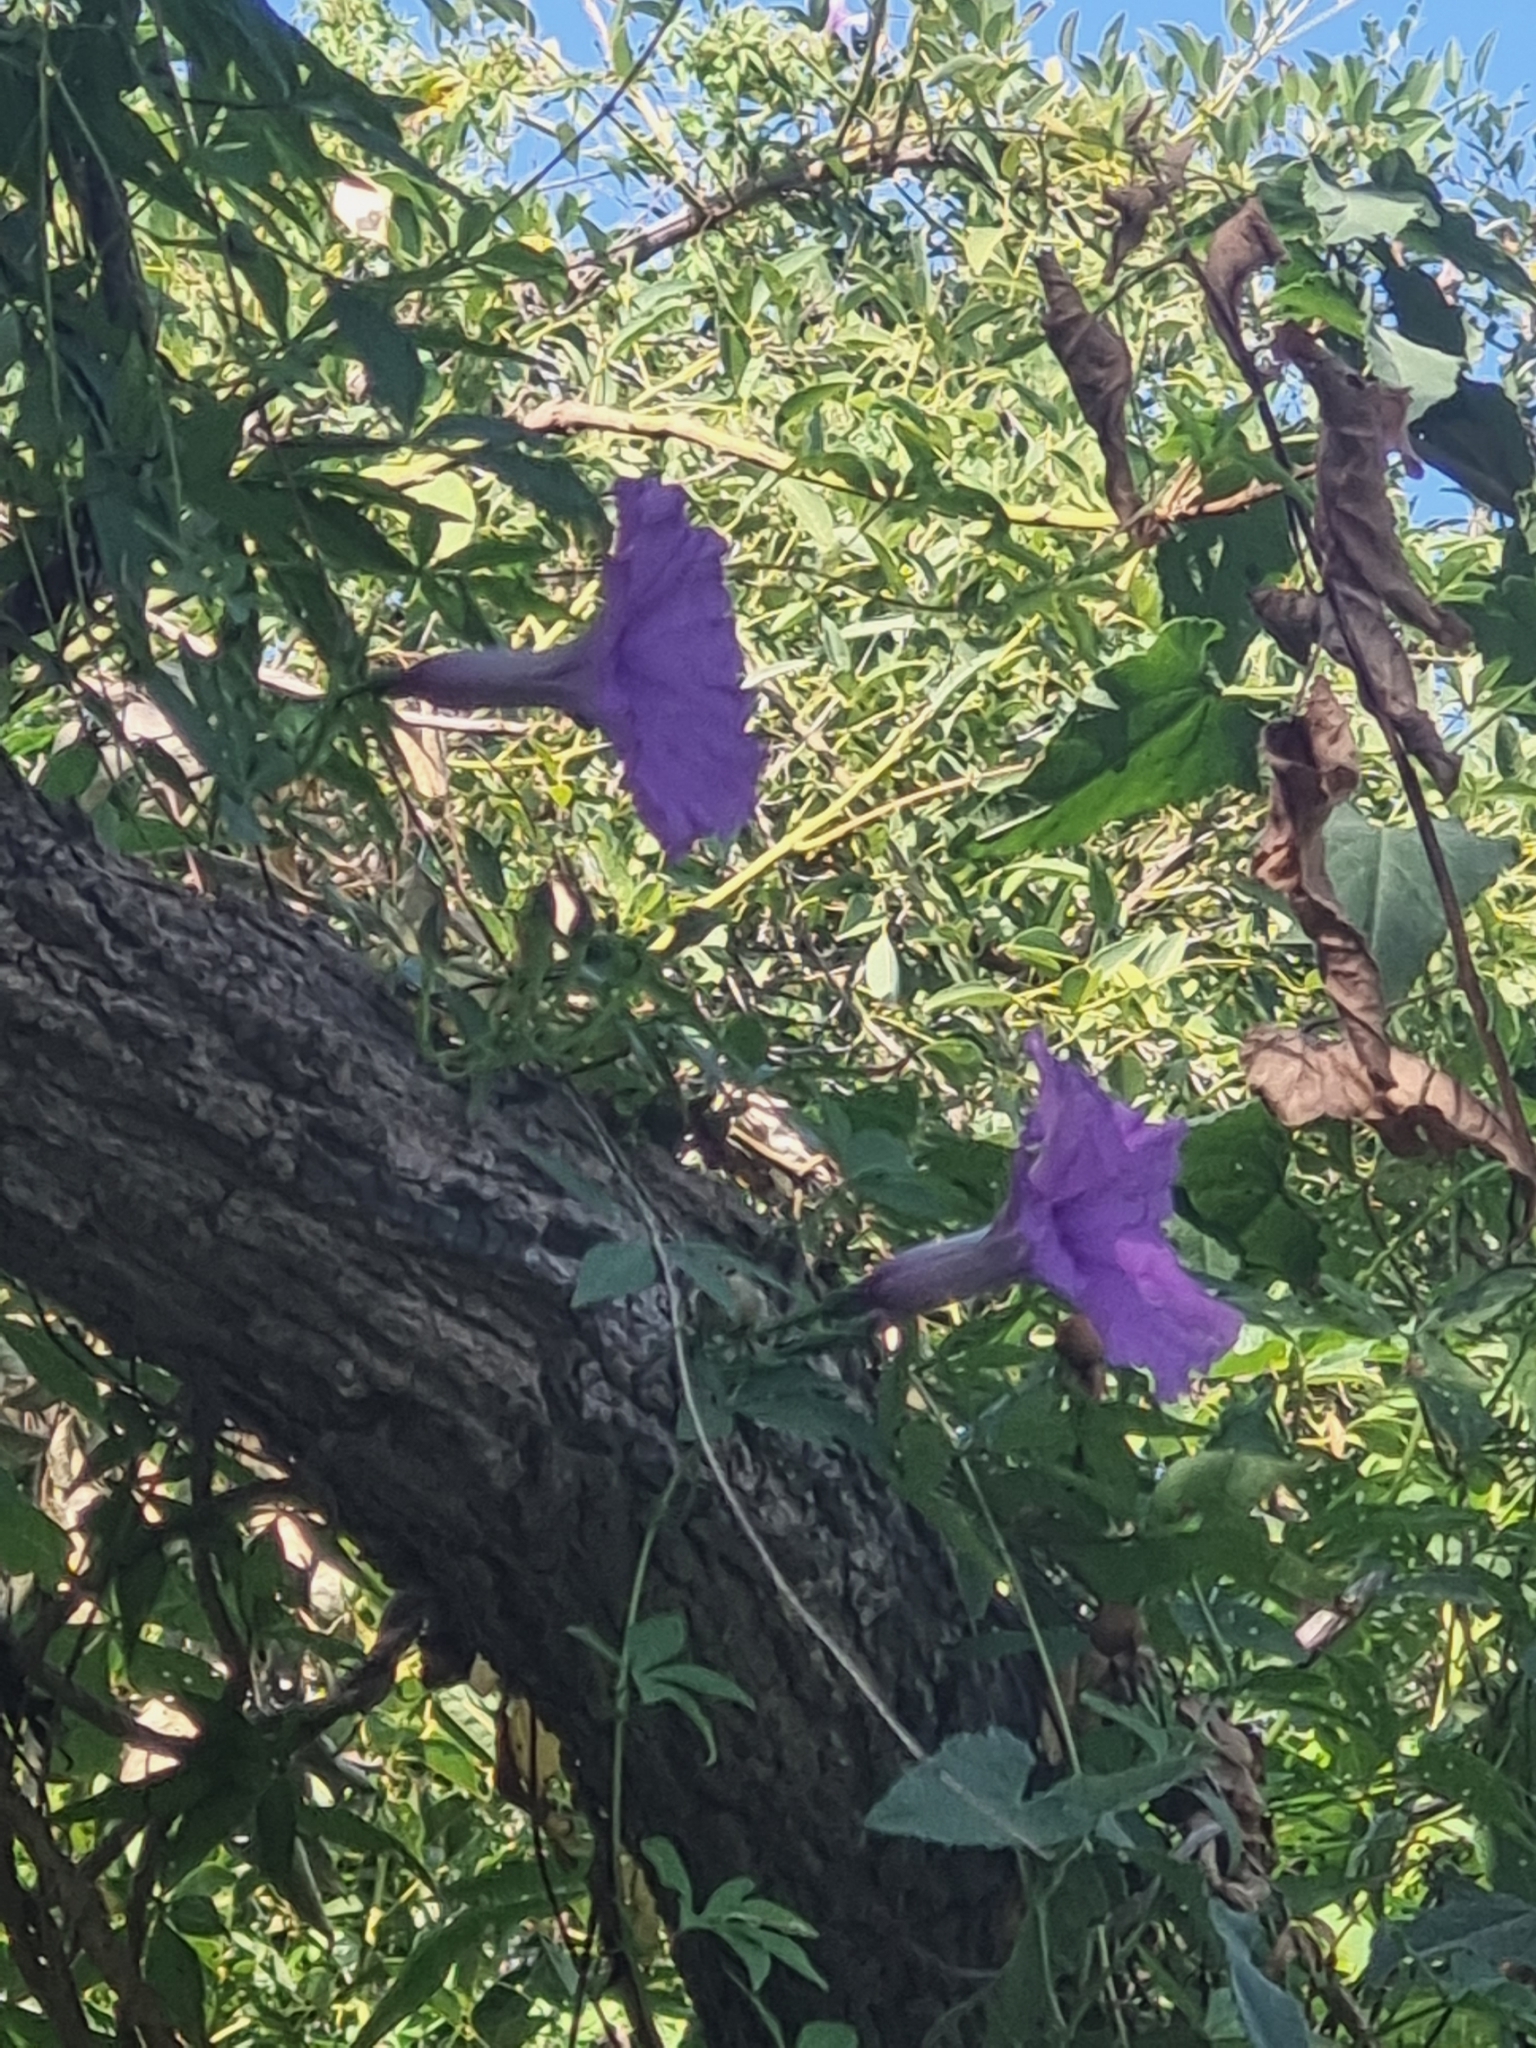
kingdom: Plantae
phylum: Tracheophyta
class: Magnoliopsida
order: Solanales
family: Convolvulaceae
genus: Ipomoea
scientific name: Ipomoea cairica
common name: Mile a minute vine
